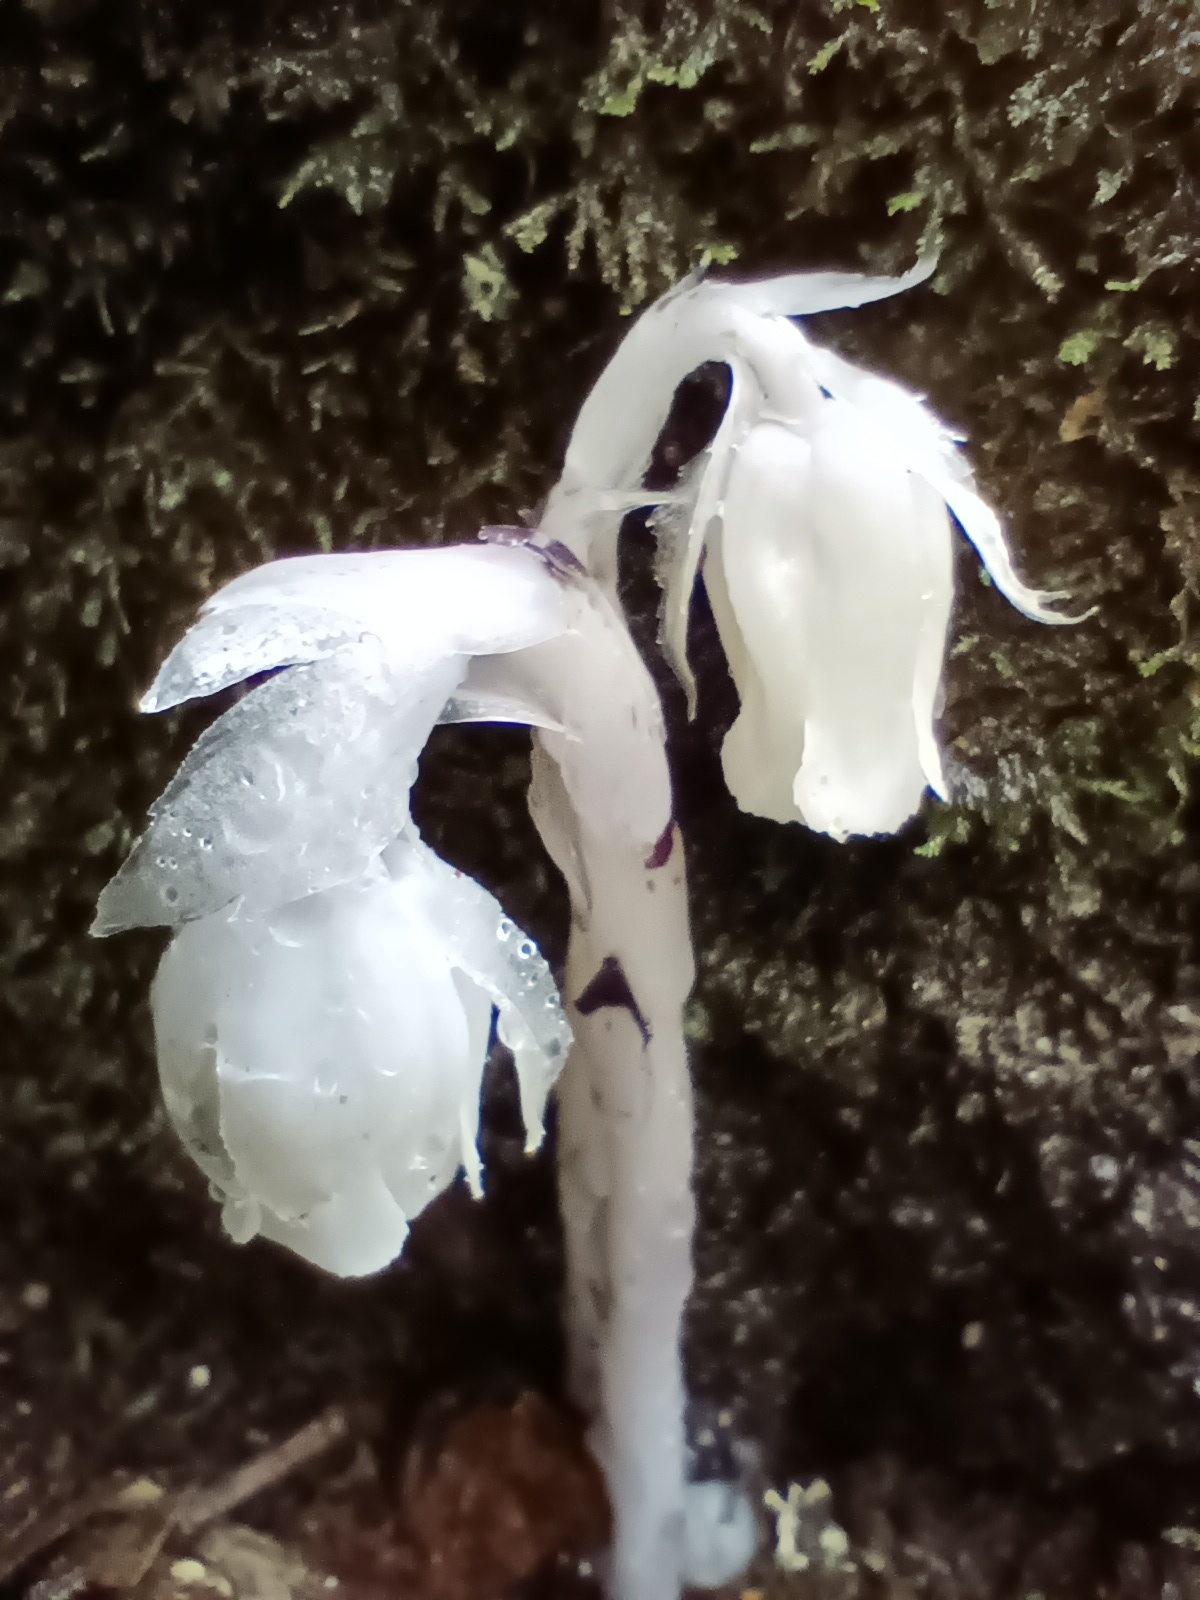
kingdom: Plantae
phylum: Tracheophyta
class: Magnoliopsida
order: Ericales
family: Ericaceae
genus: Monotropa
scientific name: Monotropa uniflora
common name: Convulsion root
